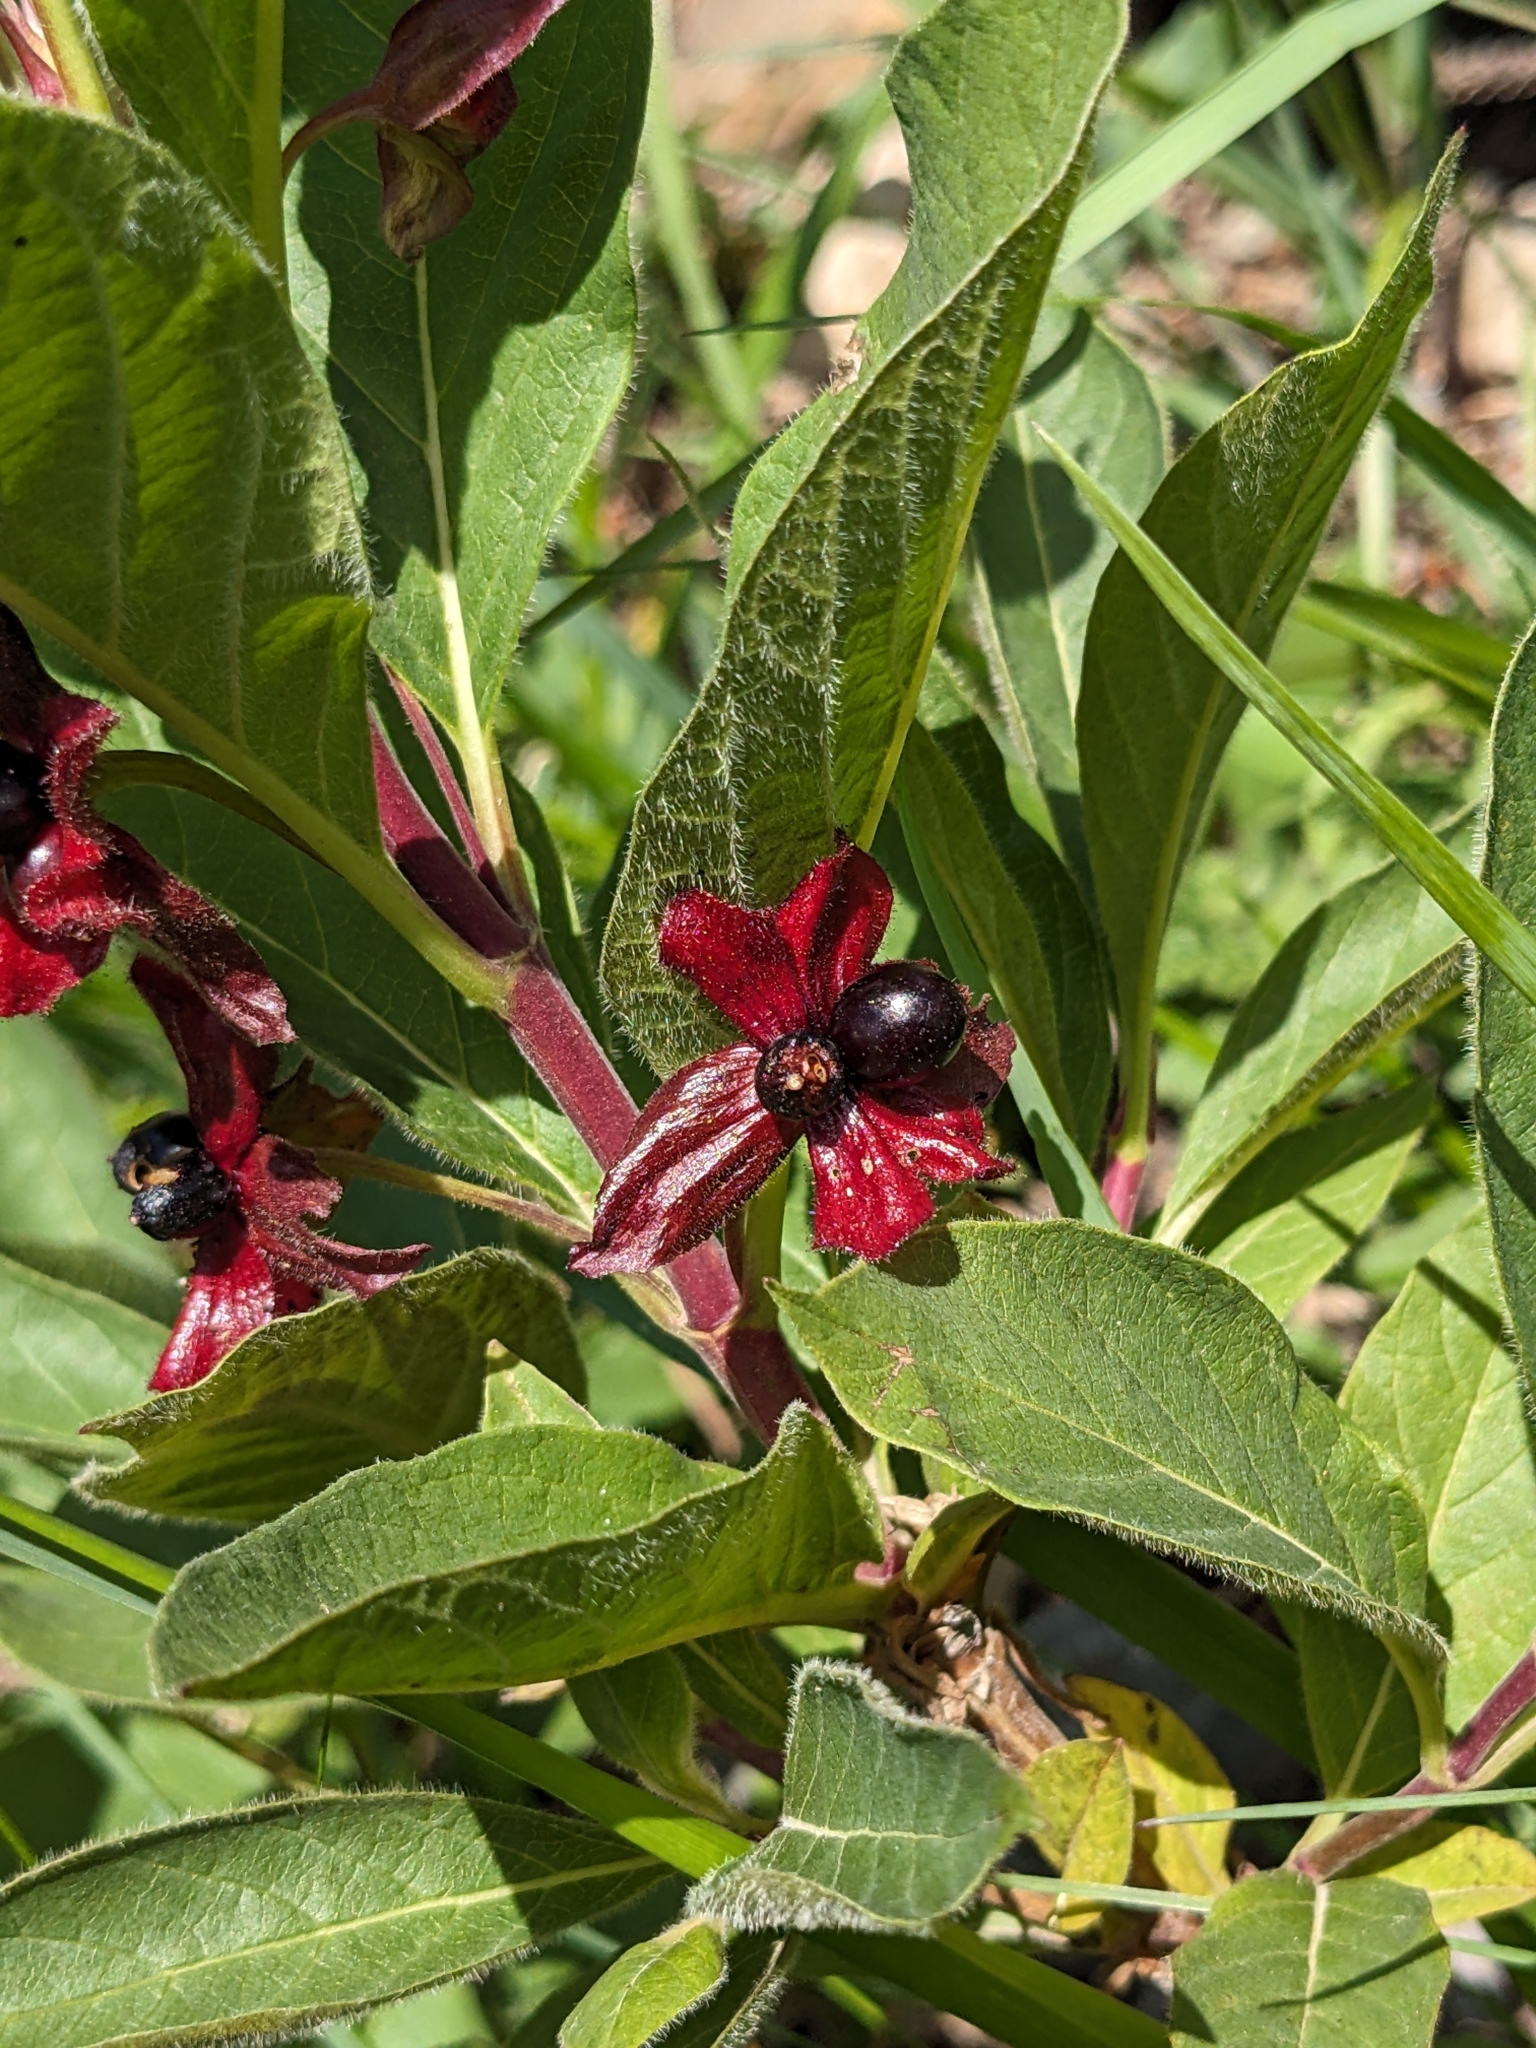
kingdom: Plantae
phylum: Tracheophyta
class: Magnoliopsida
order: Dipsacales
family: Caprifoliaceae
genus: Lonicera
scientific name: Lonicera involucrata
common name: Californian honeysuckle
